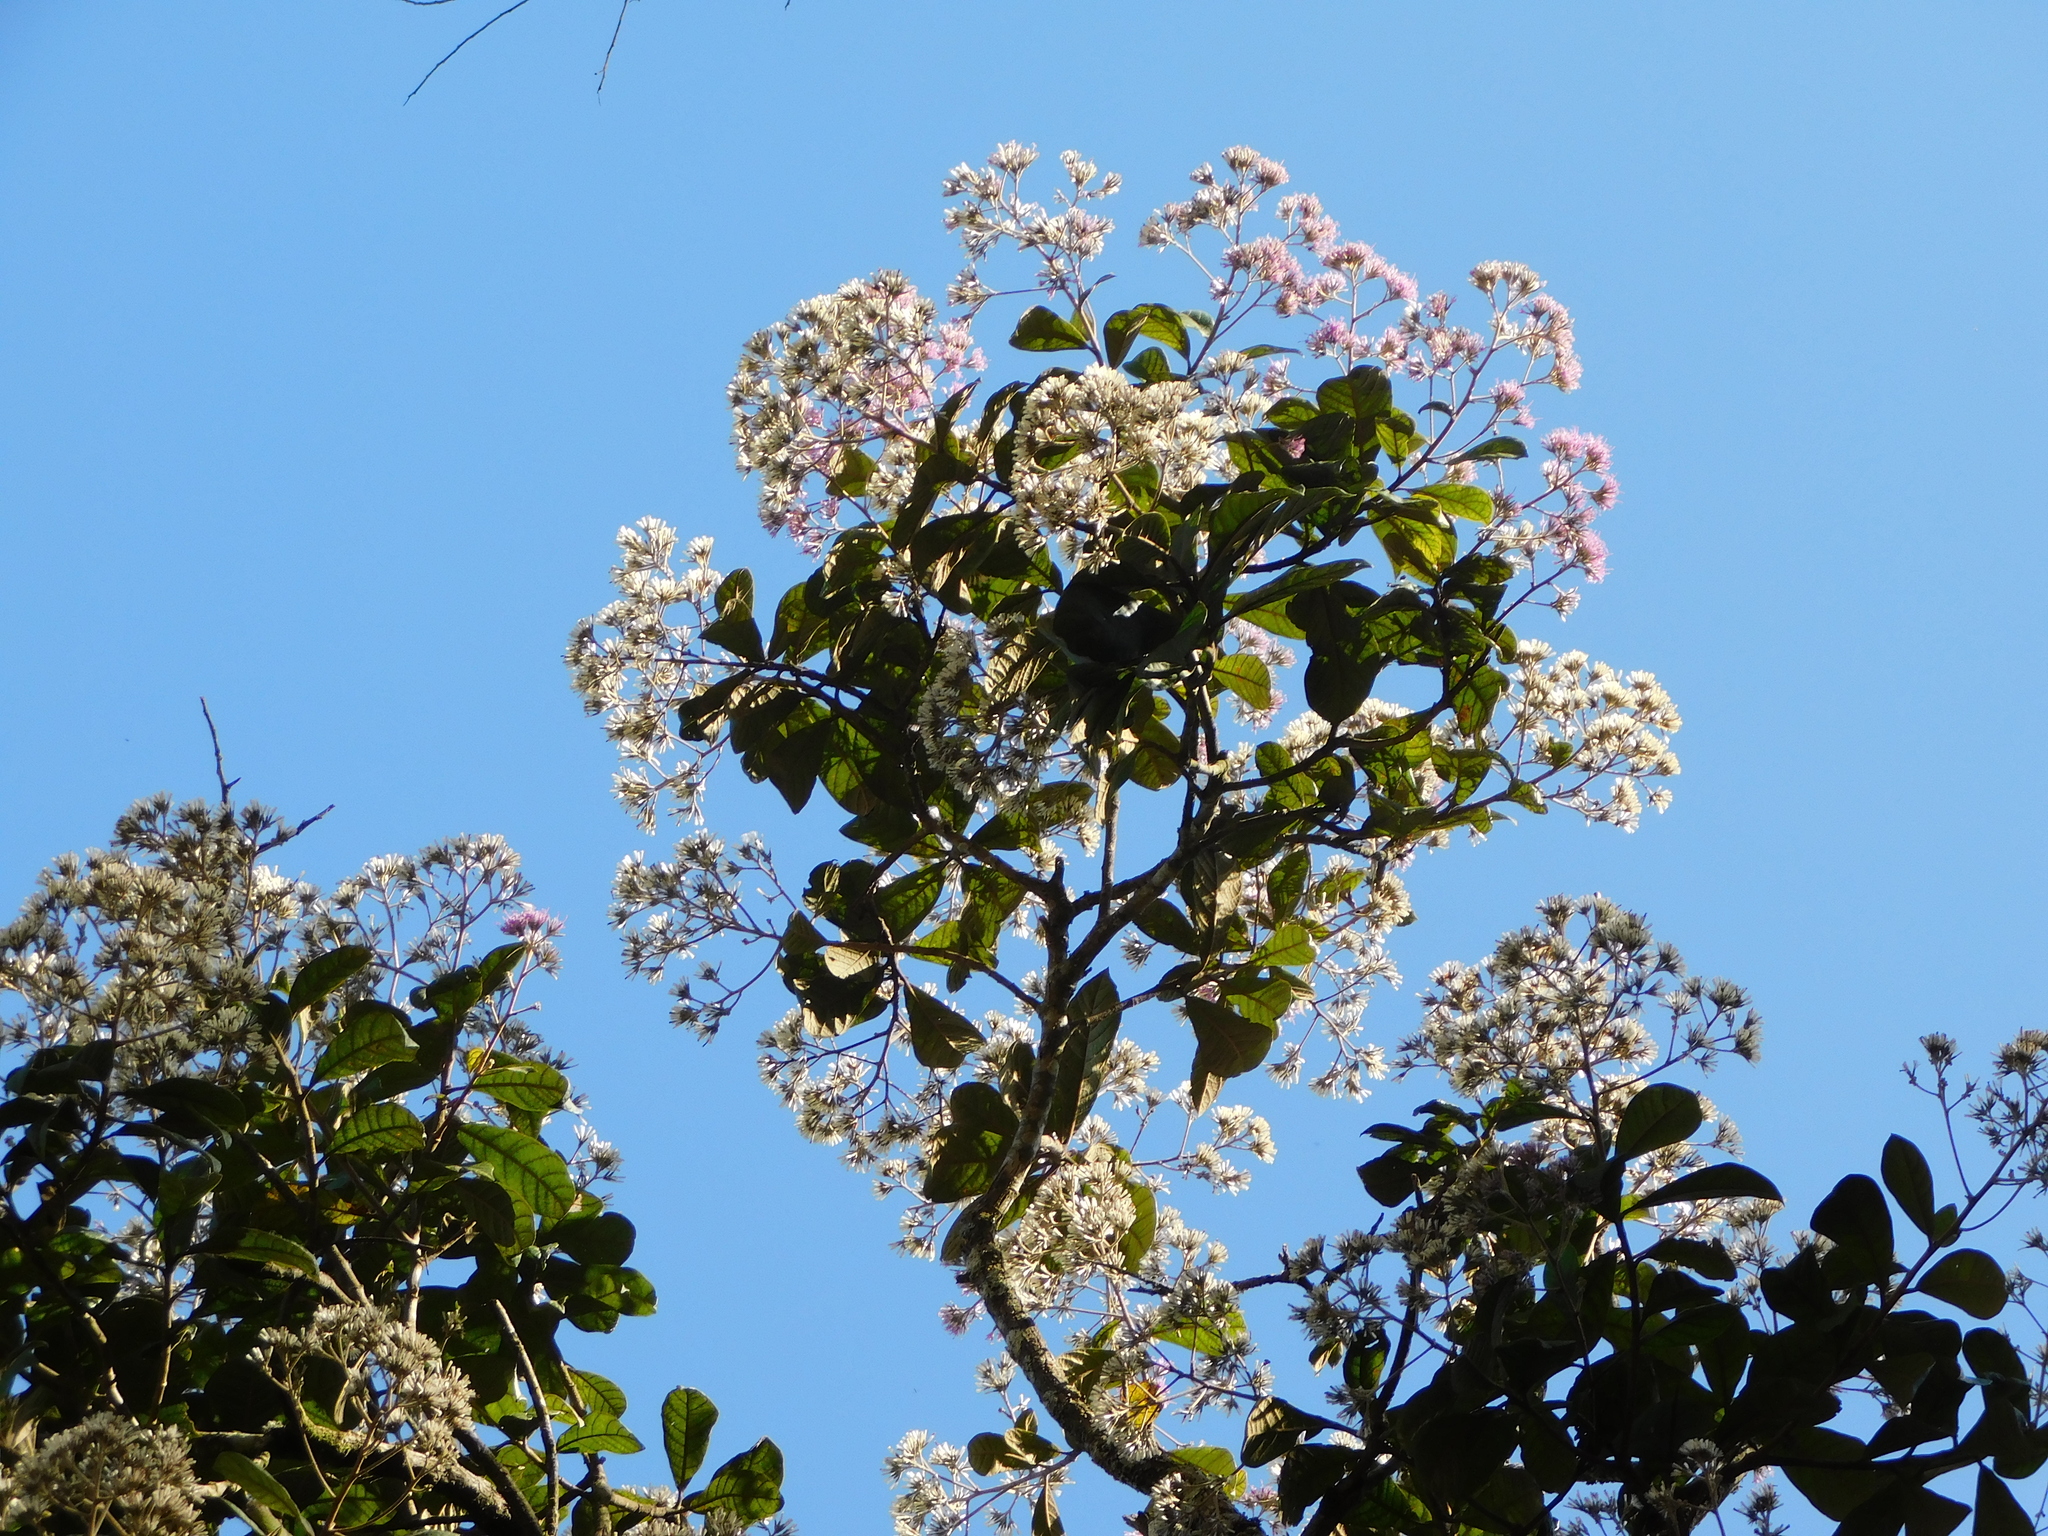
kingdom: Plantae
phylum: Tracheophyta
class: Magnoliopsida
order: Asterales
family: Asteraceae
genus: Strobocalyx
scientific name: Strobocalyx arborea
